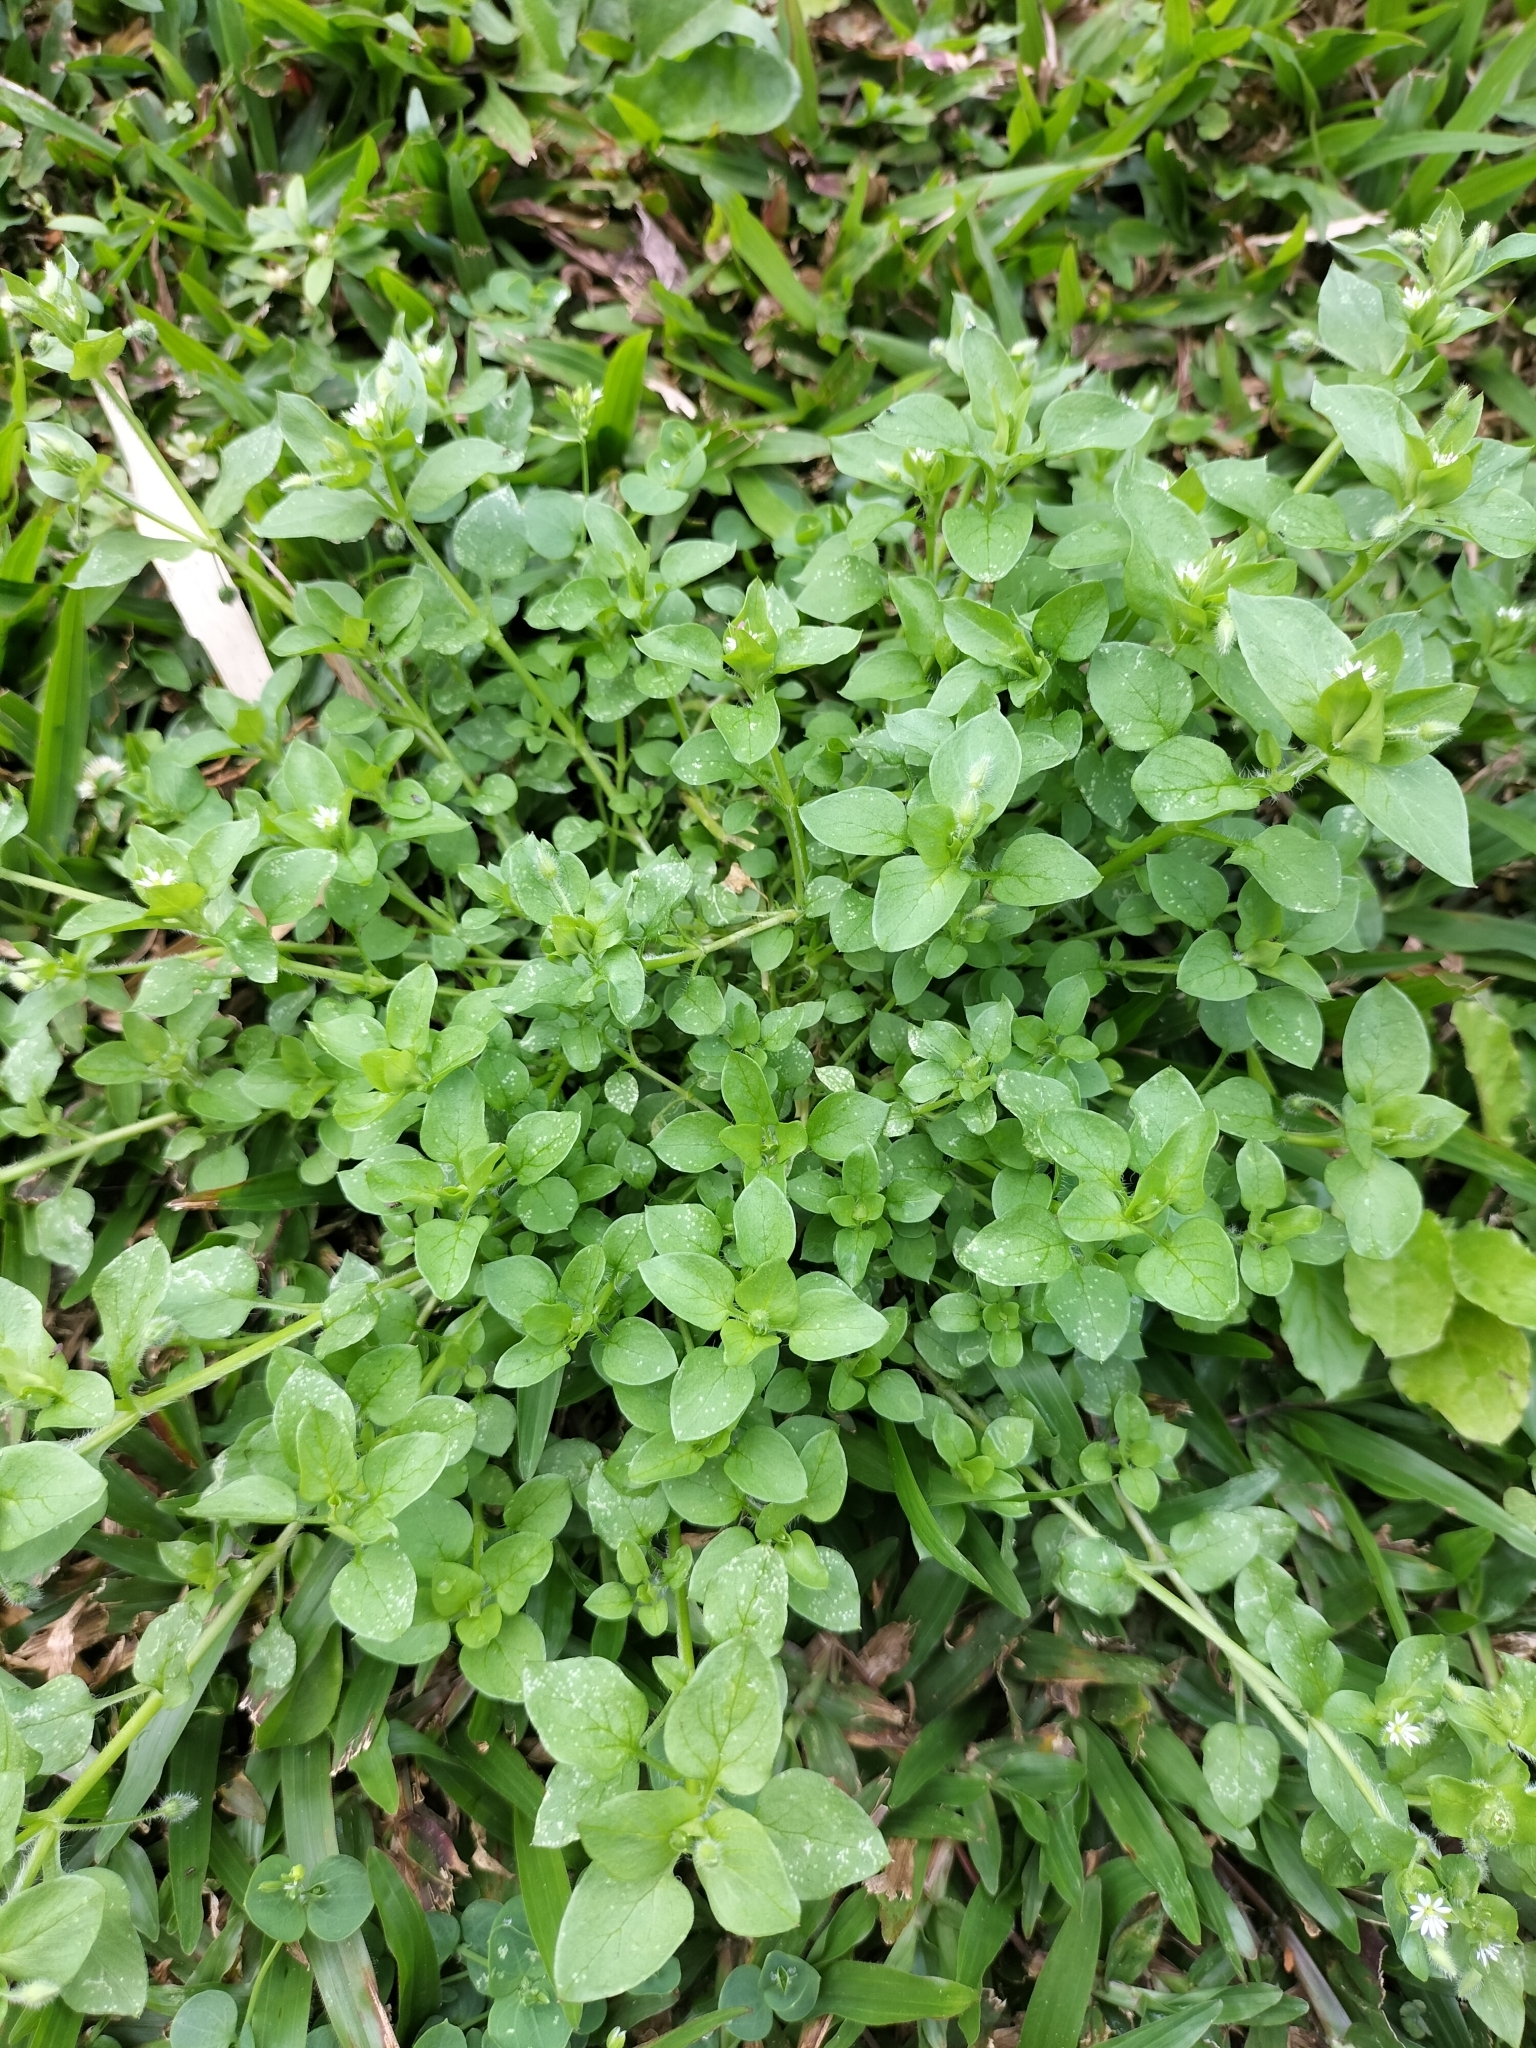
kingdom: Plantae
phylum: Tracheophyta
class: Magnoliopsida
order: Caryophyllales
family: Caryophyllaceae
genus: Stellaria
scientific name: Stellaria media
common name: Common chickweed
